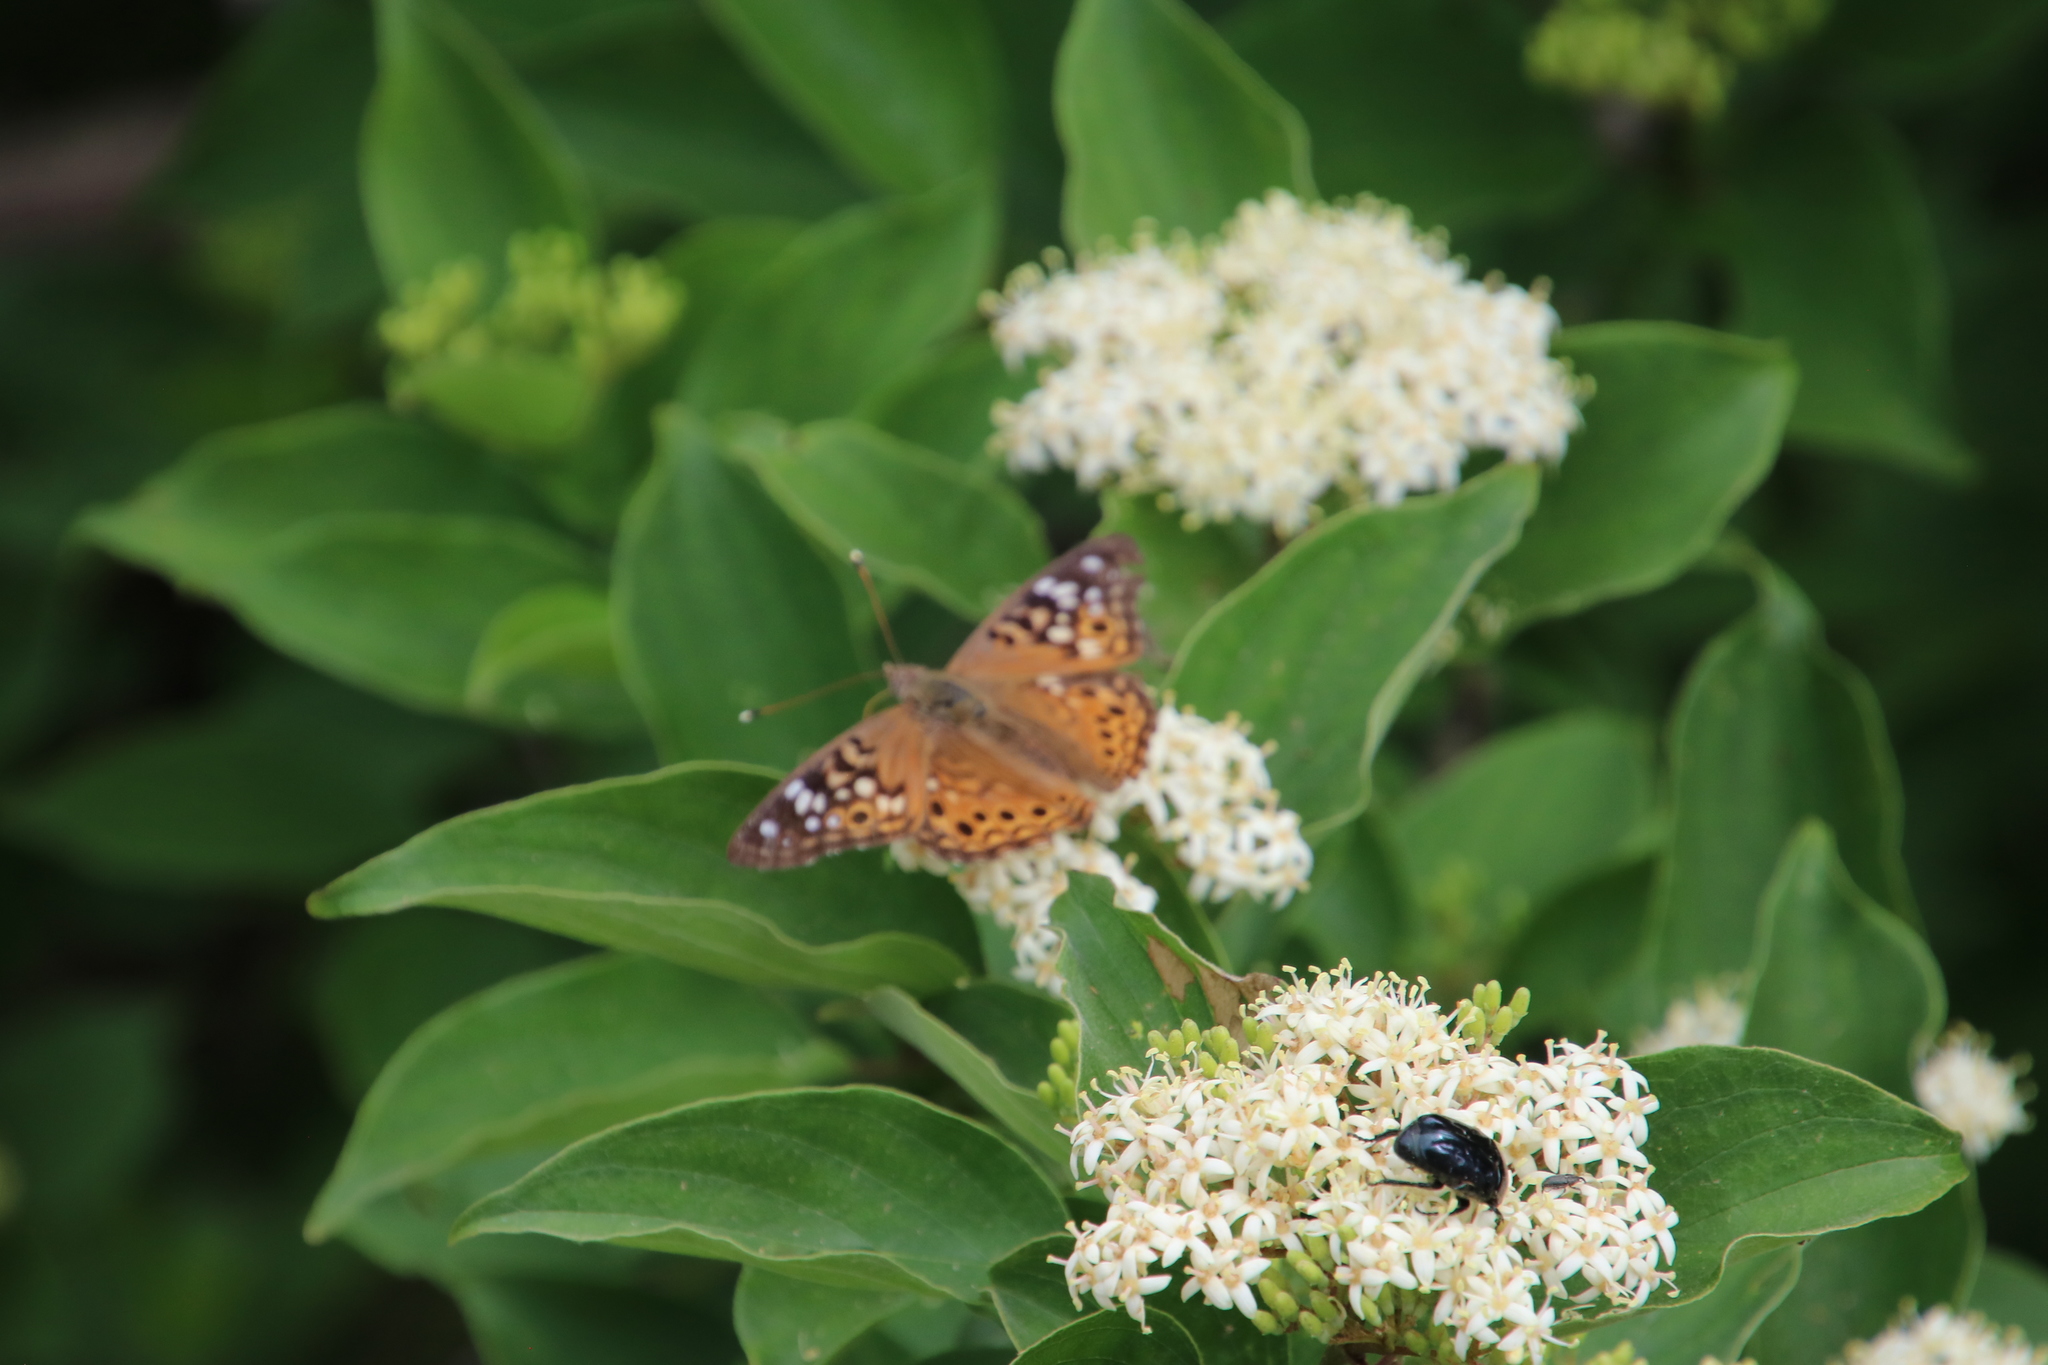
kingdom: Animalia
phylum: Arthropoda
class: Insecta
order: Lepidoptera
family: Nymphalidae
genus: Asterocampa
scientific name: Asterocampa celtis
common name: Hackberry emperor
